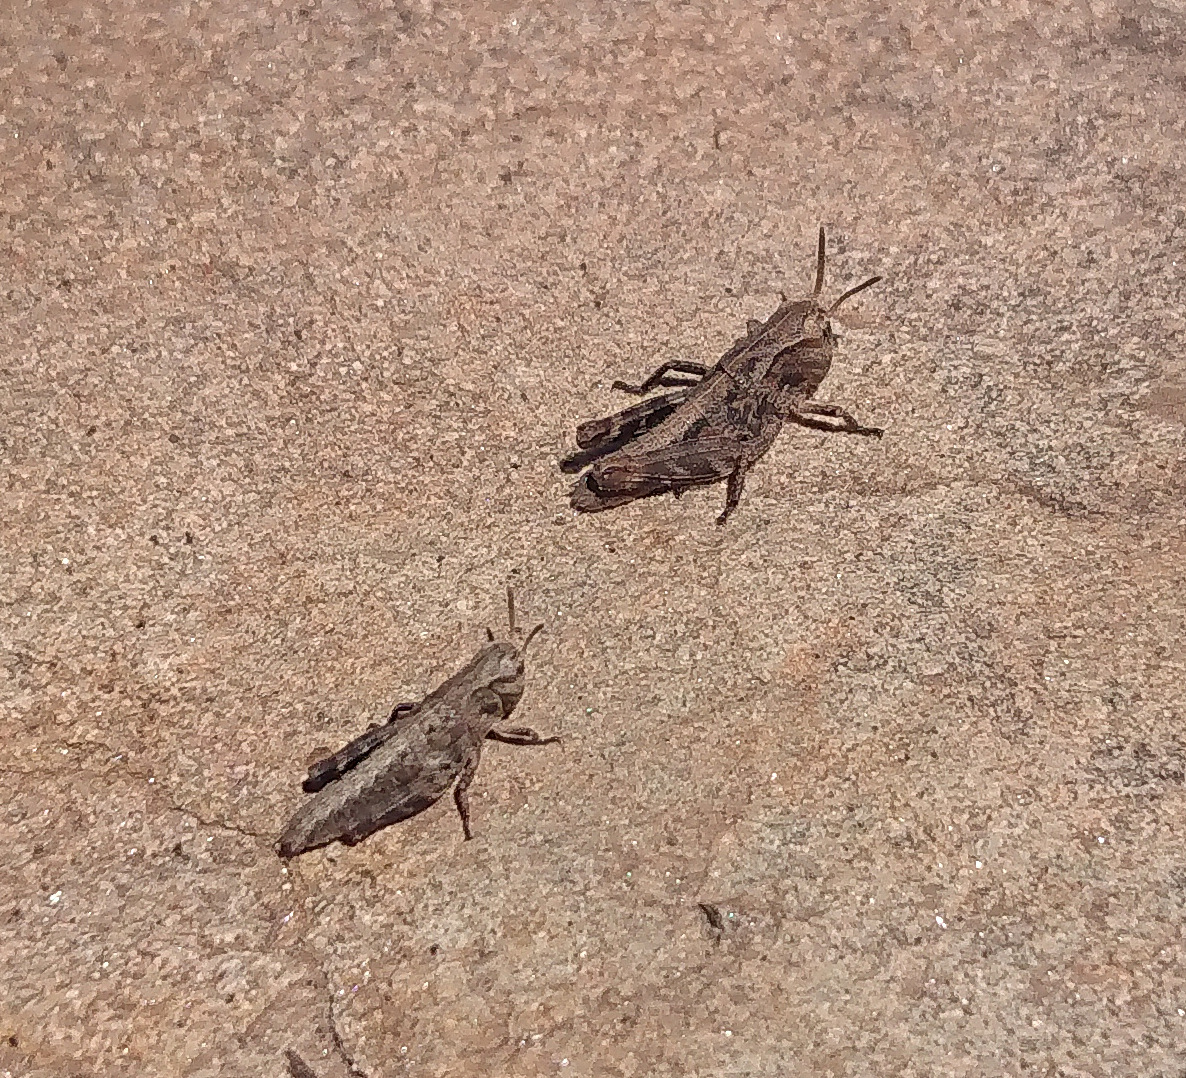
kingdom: Animalia
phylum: Arthropoda
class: Insecta
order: Orthoptera
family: Acrididae
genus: Camnula
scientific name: Camnula pellucida
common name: Clear-winged grasshopper
